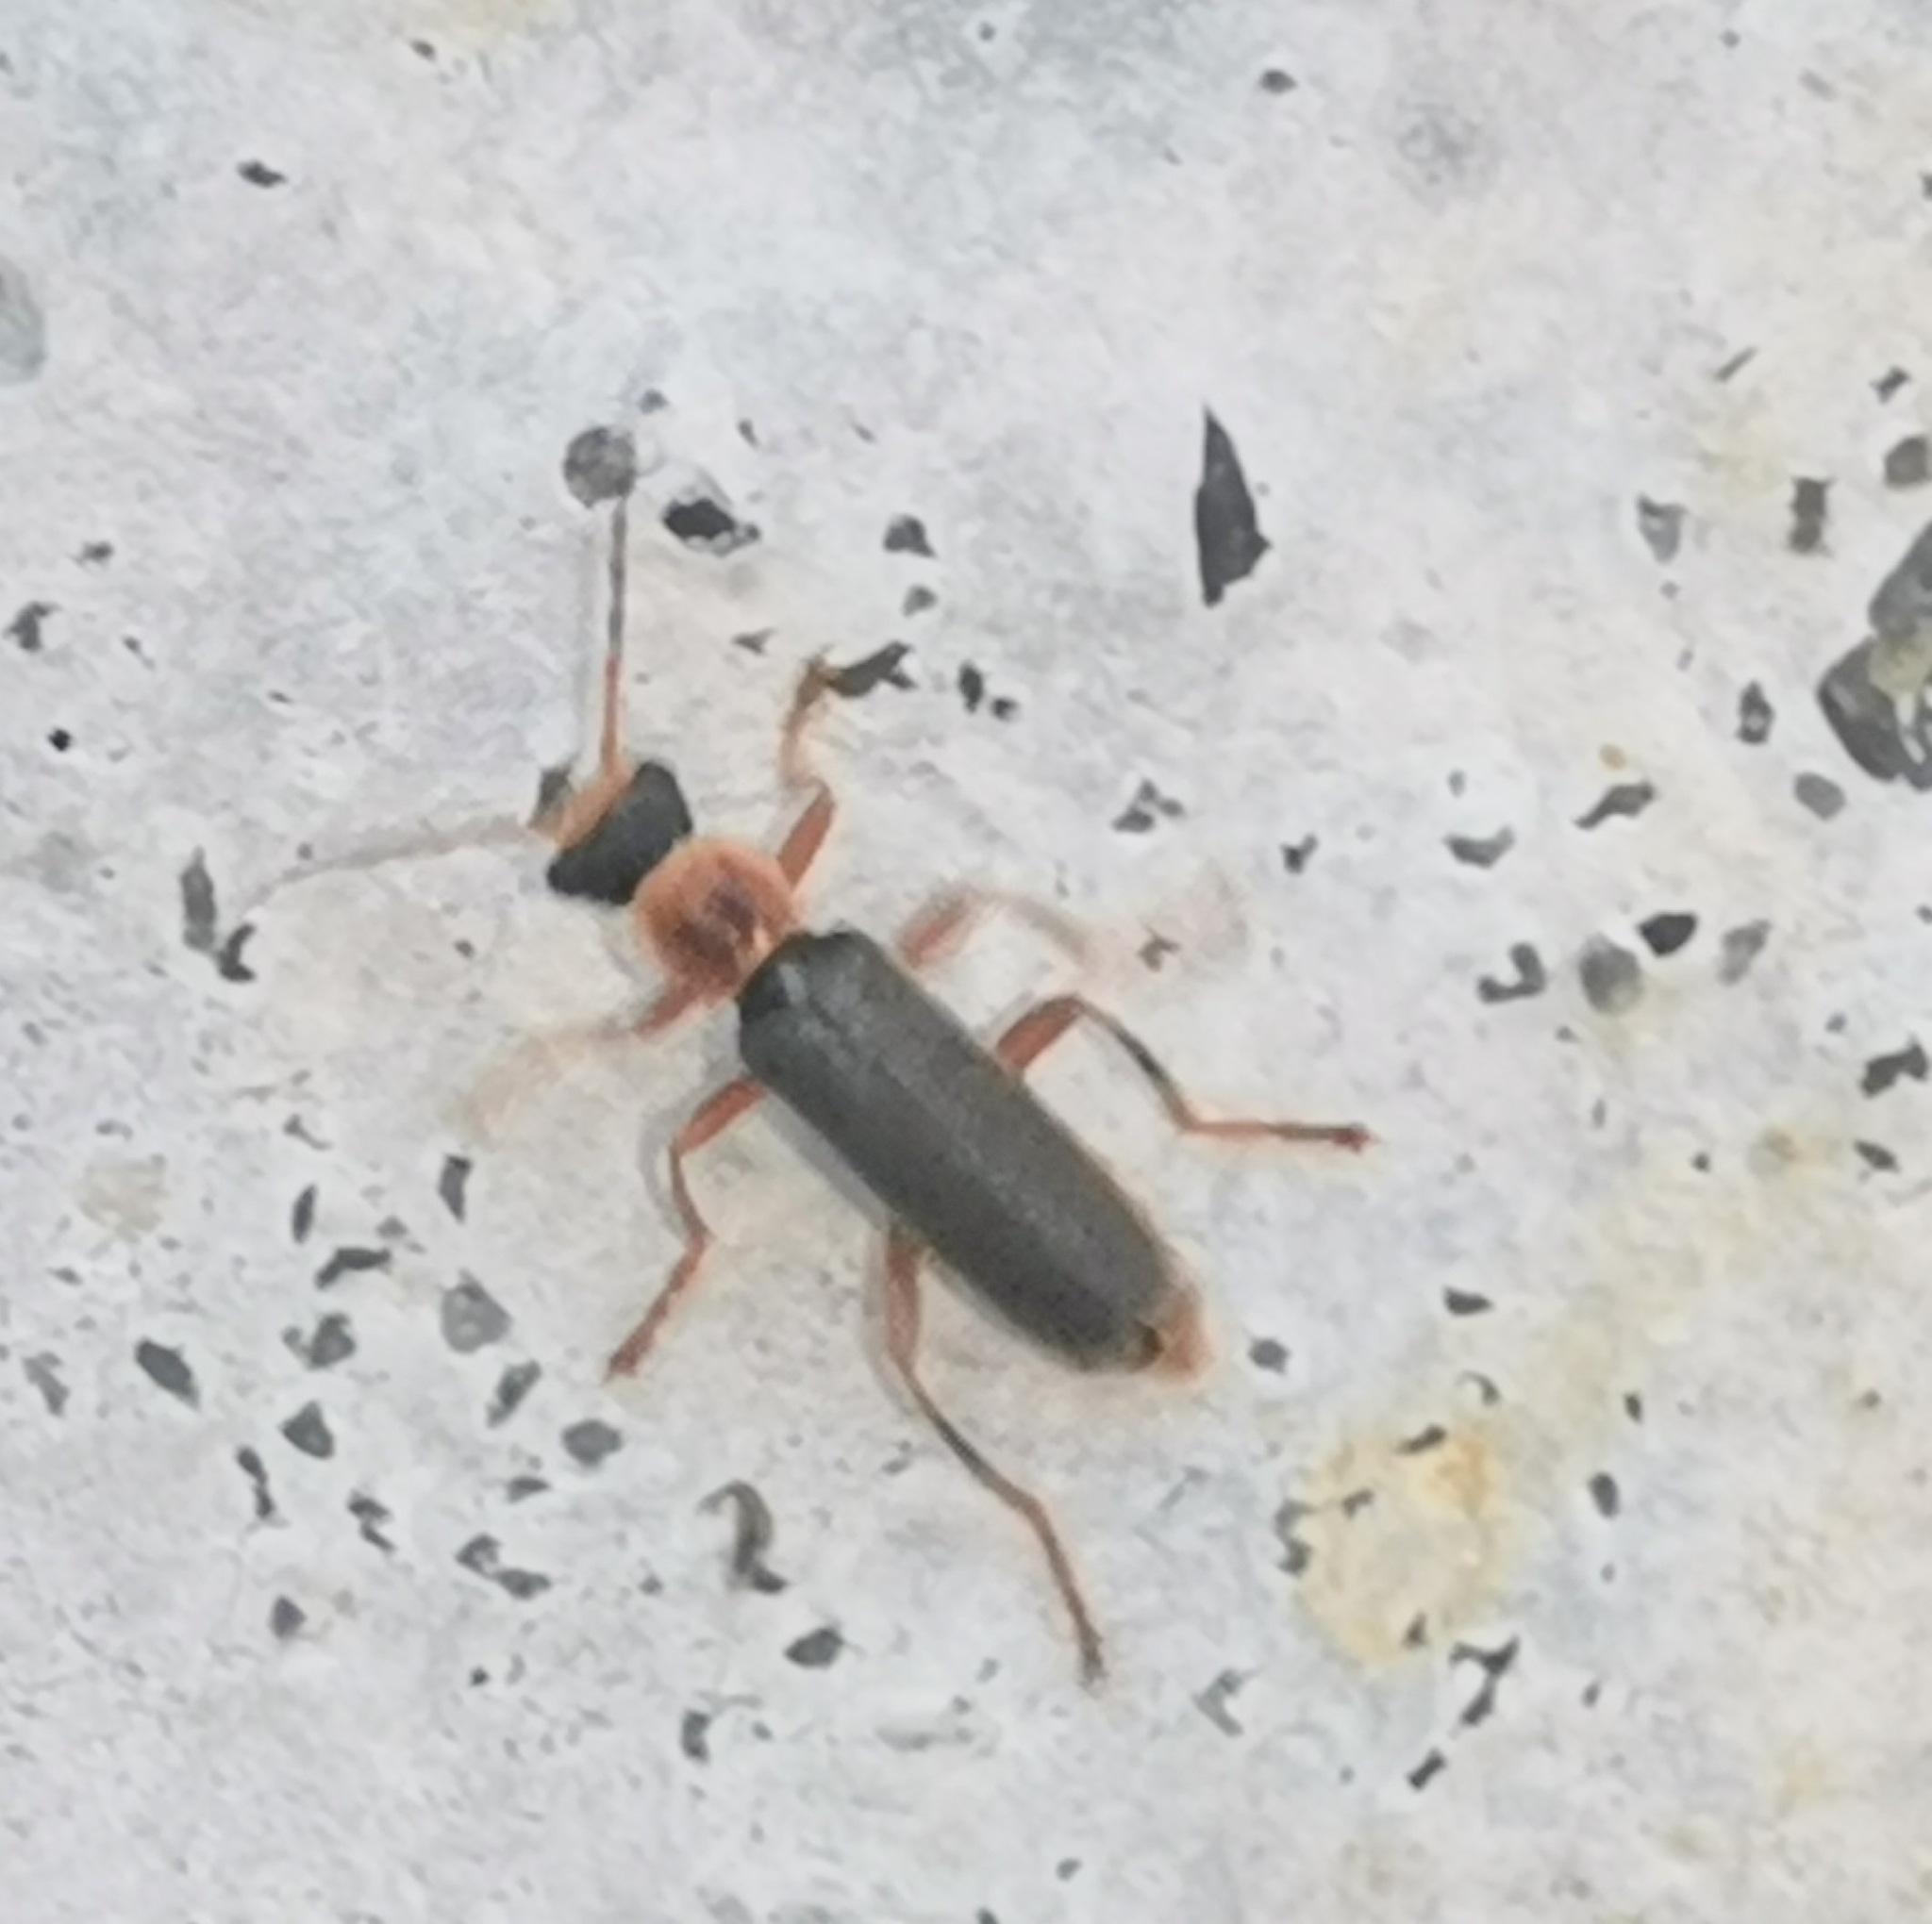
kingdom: Animalia
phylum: Arthropoda
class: Insecta
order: Coleoptera
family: Cantharidae
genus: Cantharis
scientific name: Cantharis lateralis
